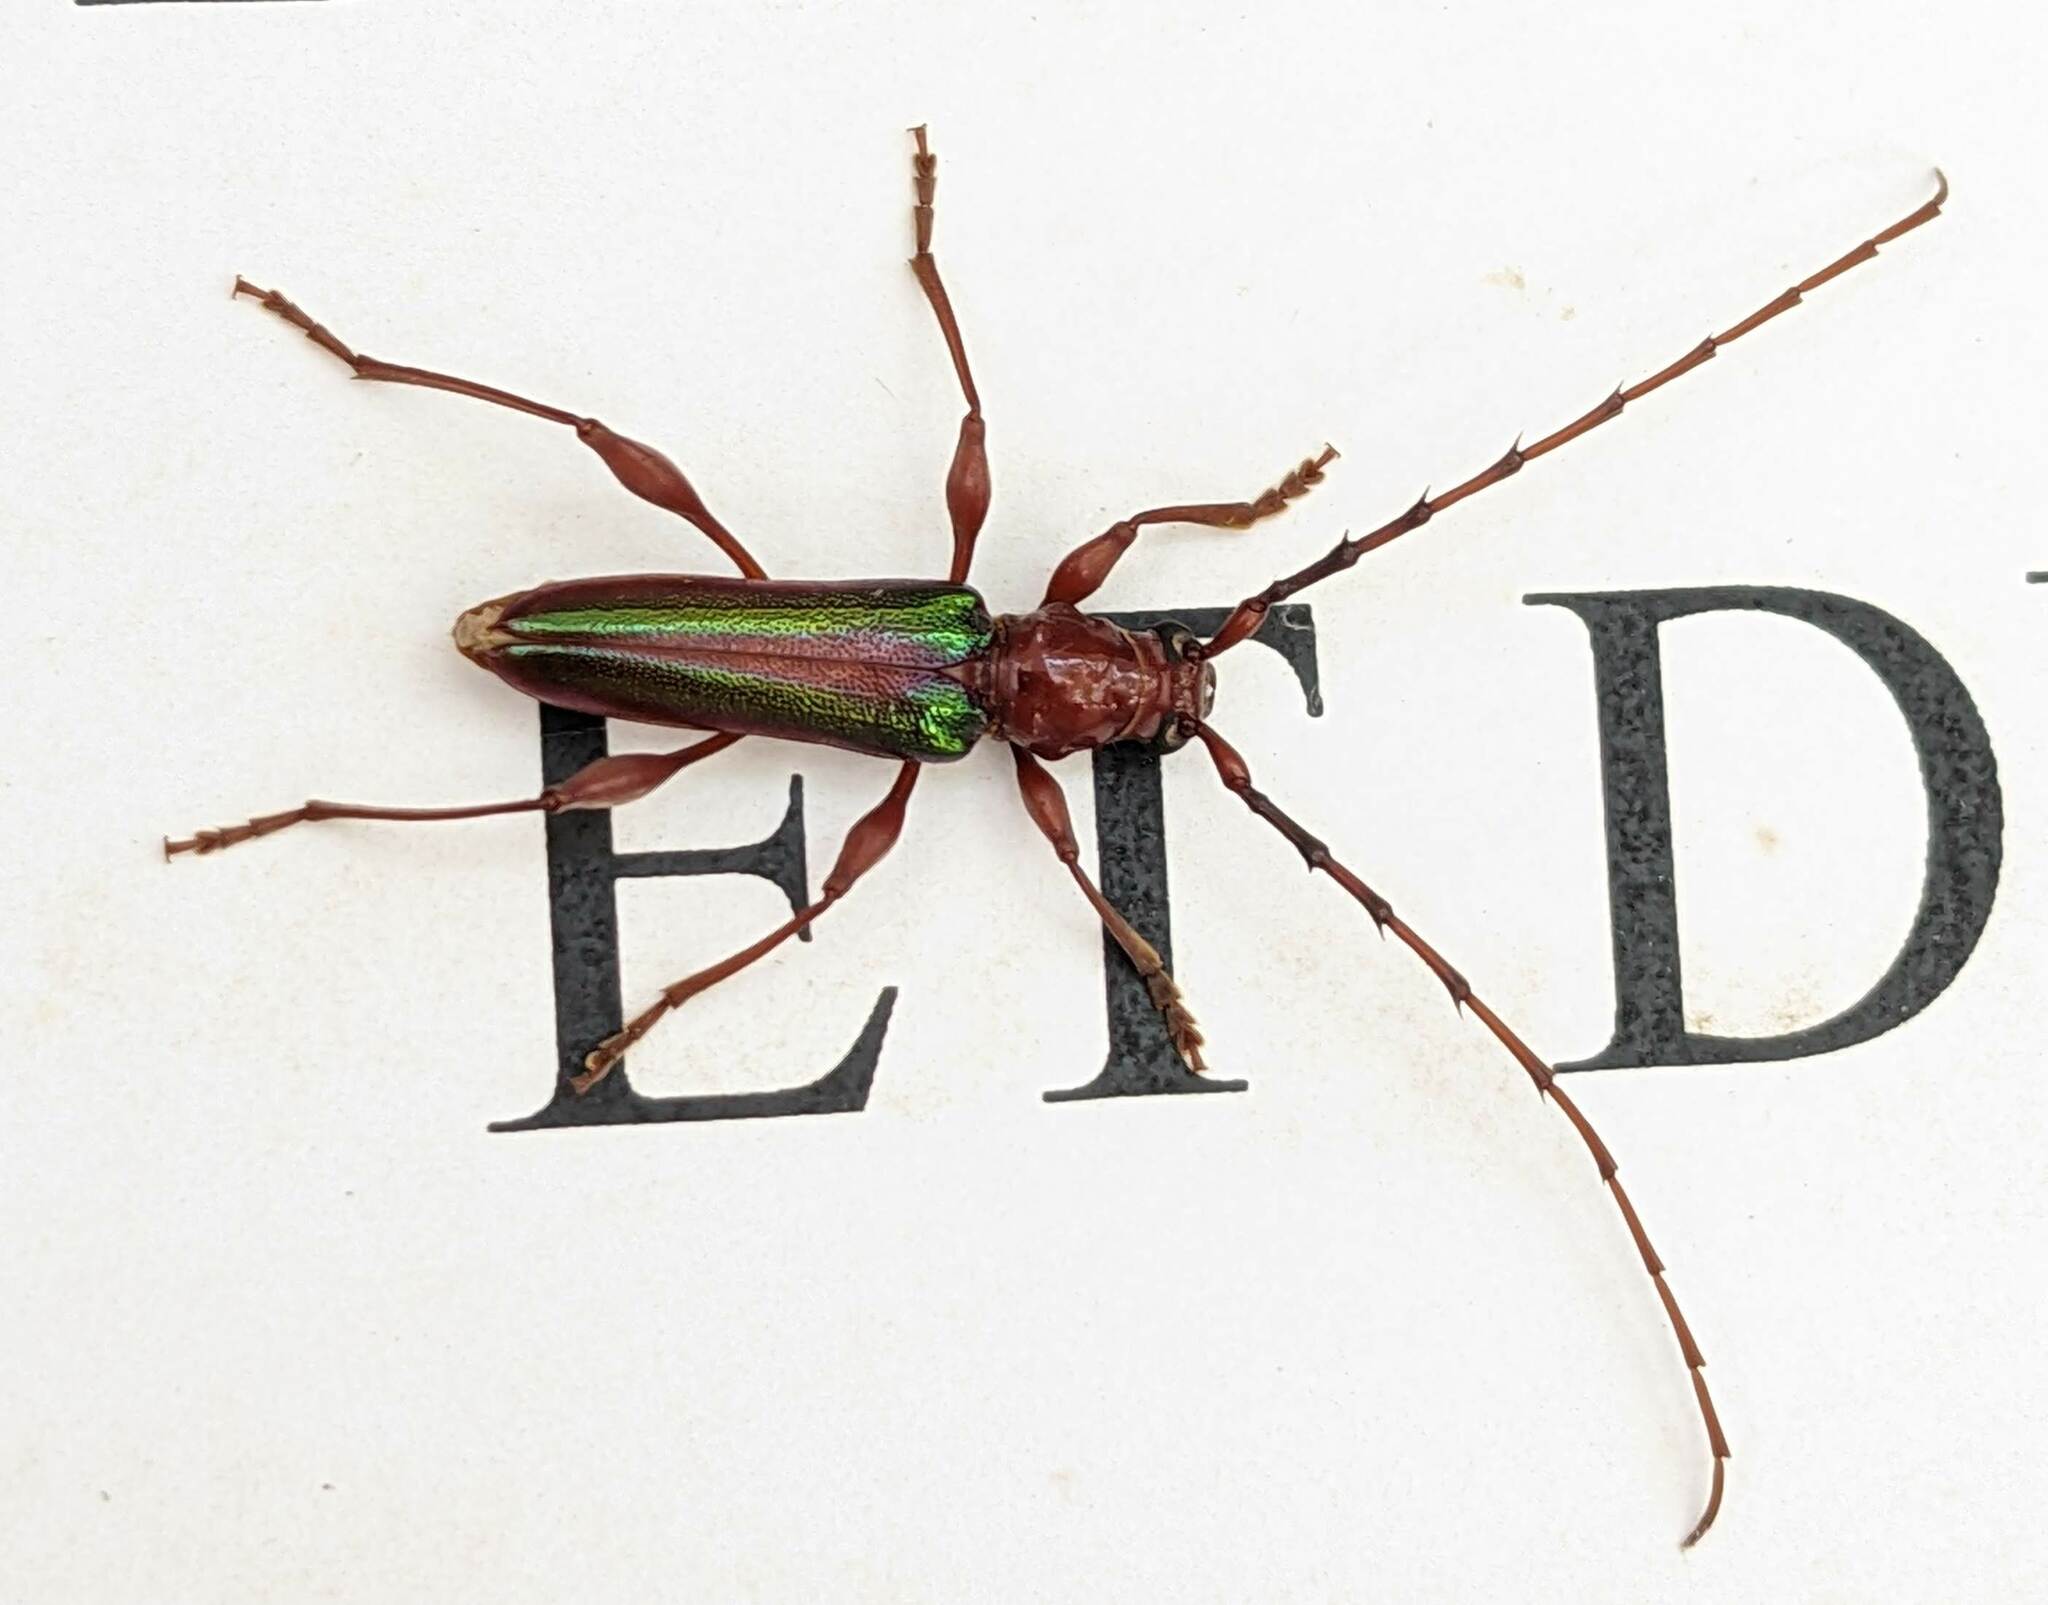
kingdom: Animalia
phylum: Arthropoda
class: Insecta
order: Coleoptera
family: Cerambycidae
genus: Cordylomera
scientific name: Cordylomera spinicornis
